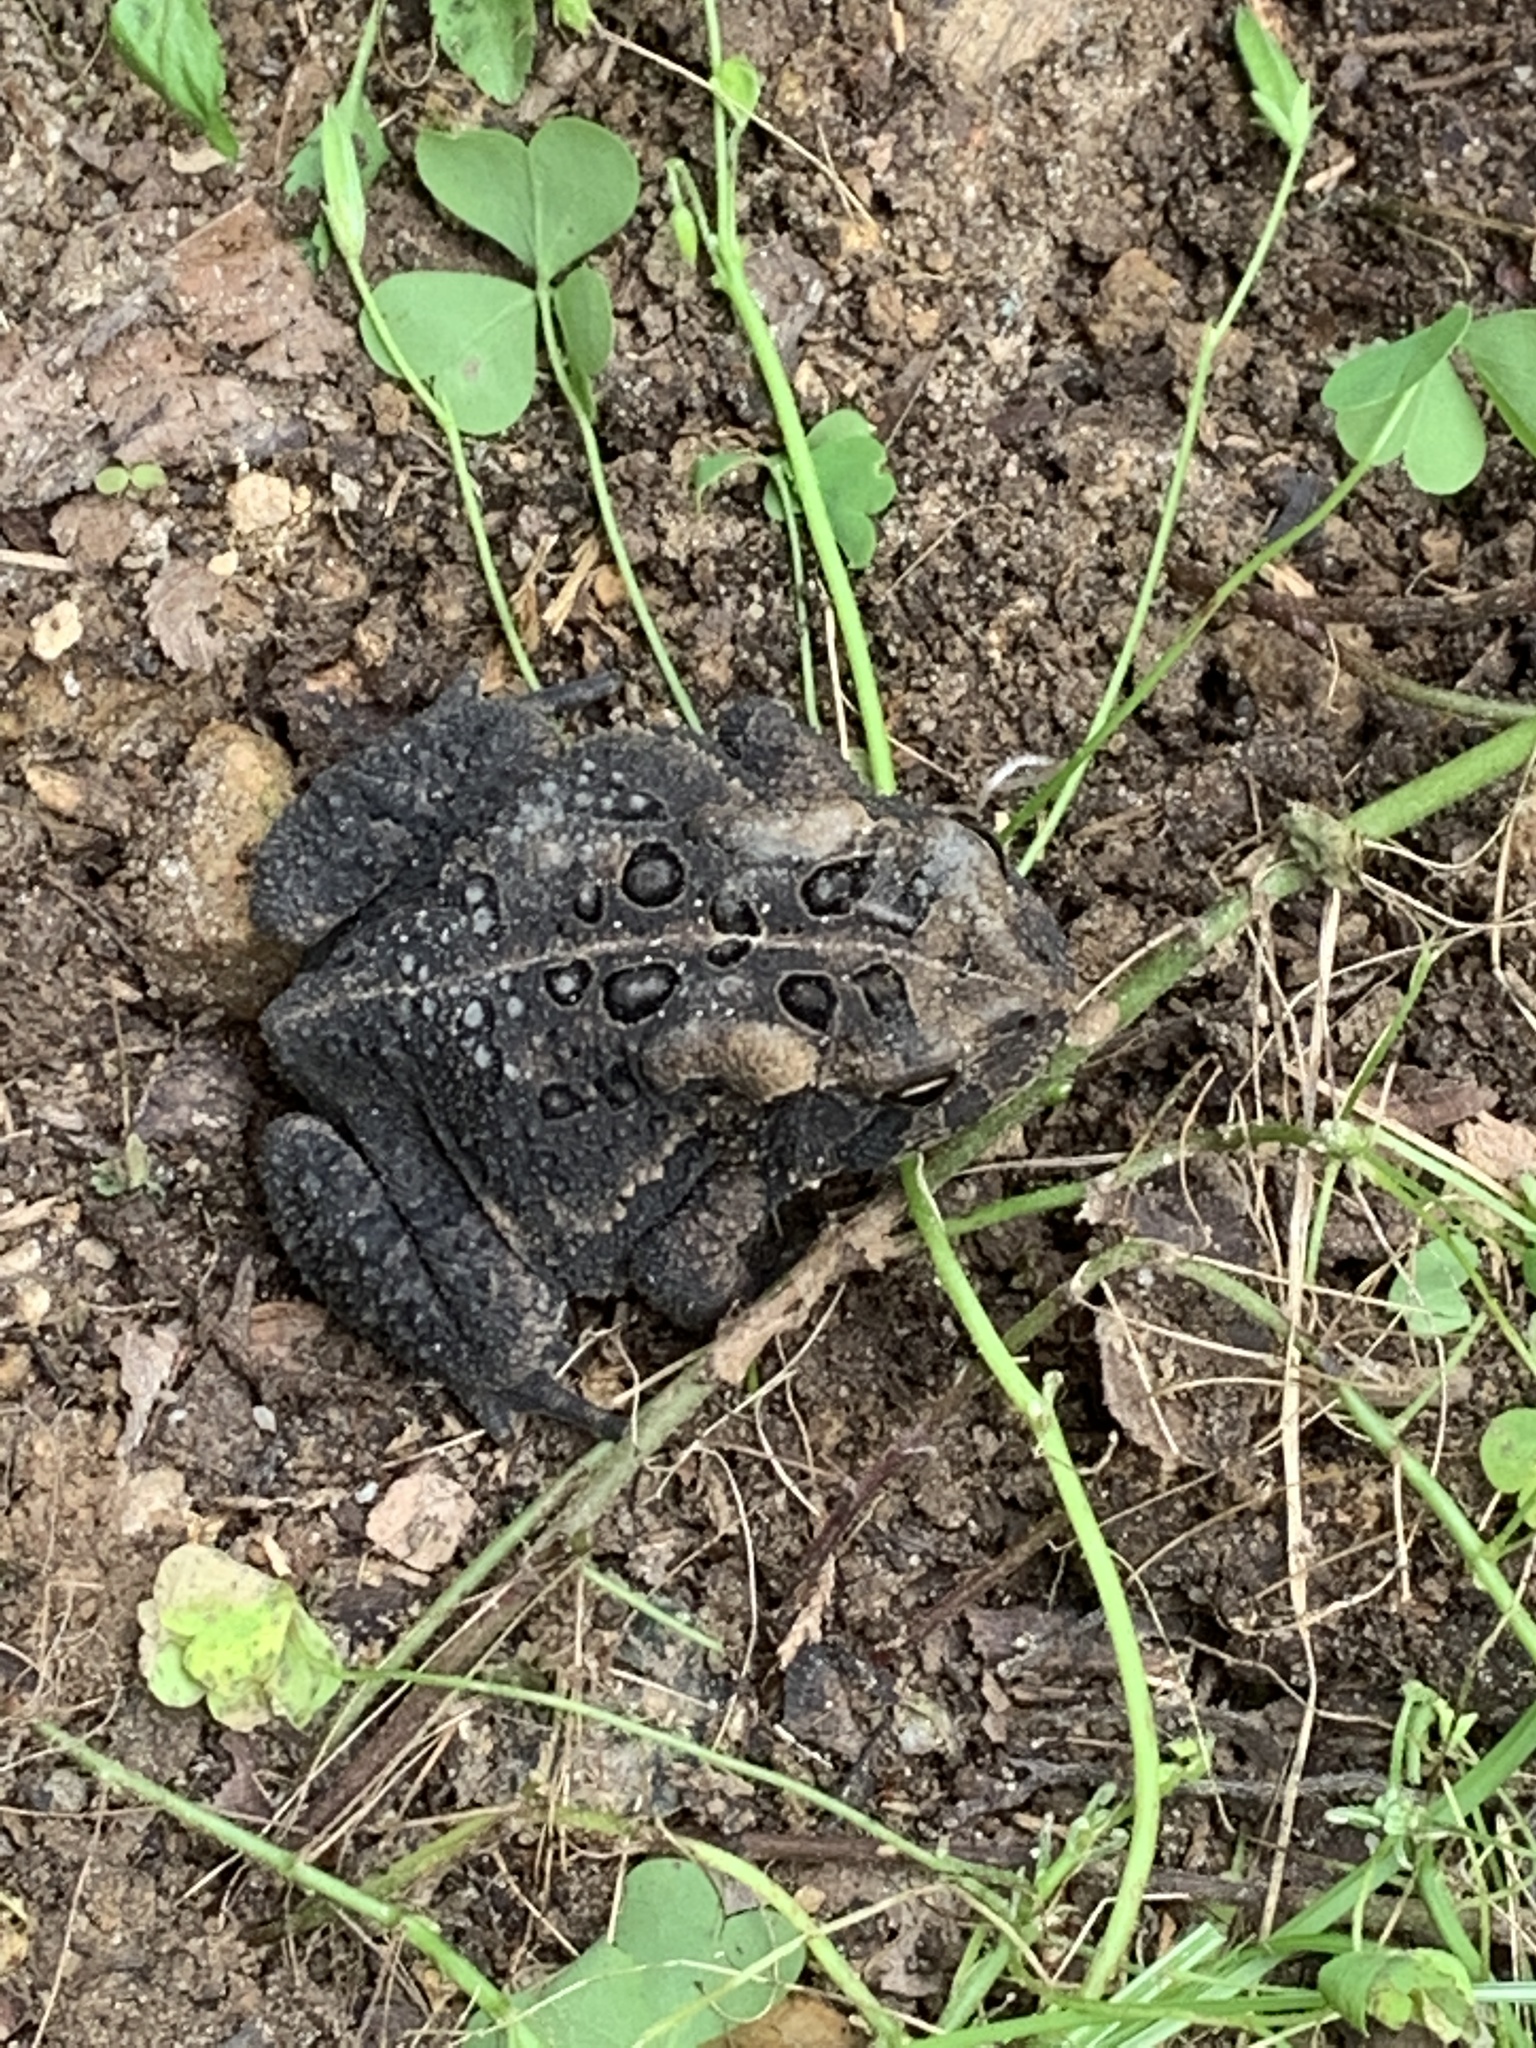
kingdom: Animalia
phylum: Chordata
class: Amphibia
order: Anura
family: Bufonidae
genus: Anaxyrus
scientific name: Anaxyrus americanus
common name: American toad
